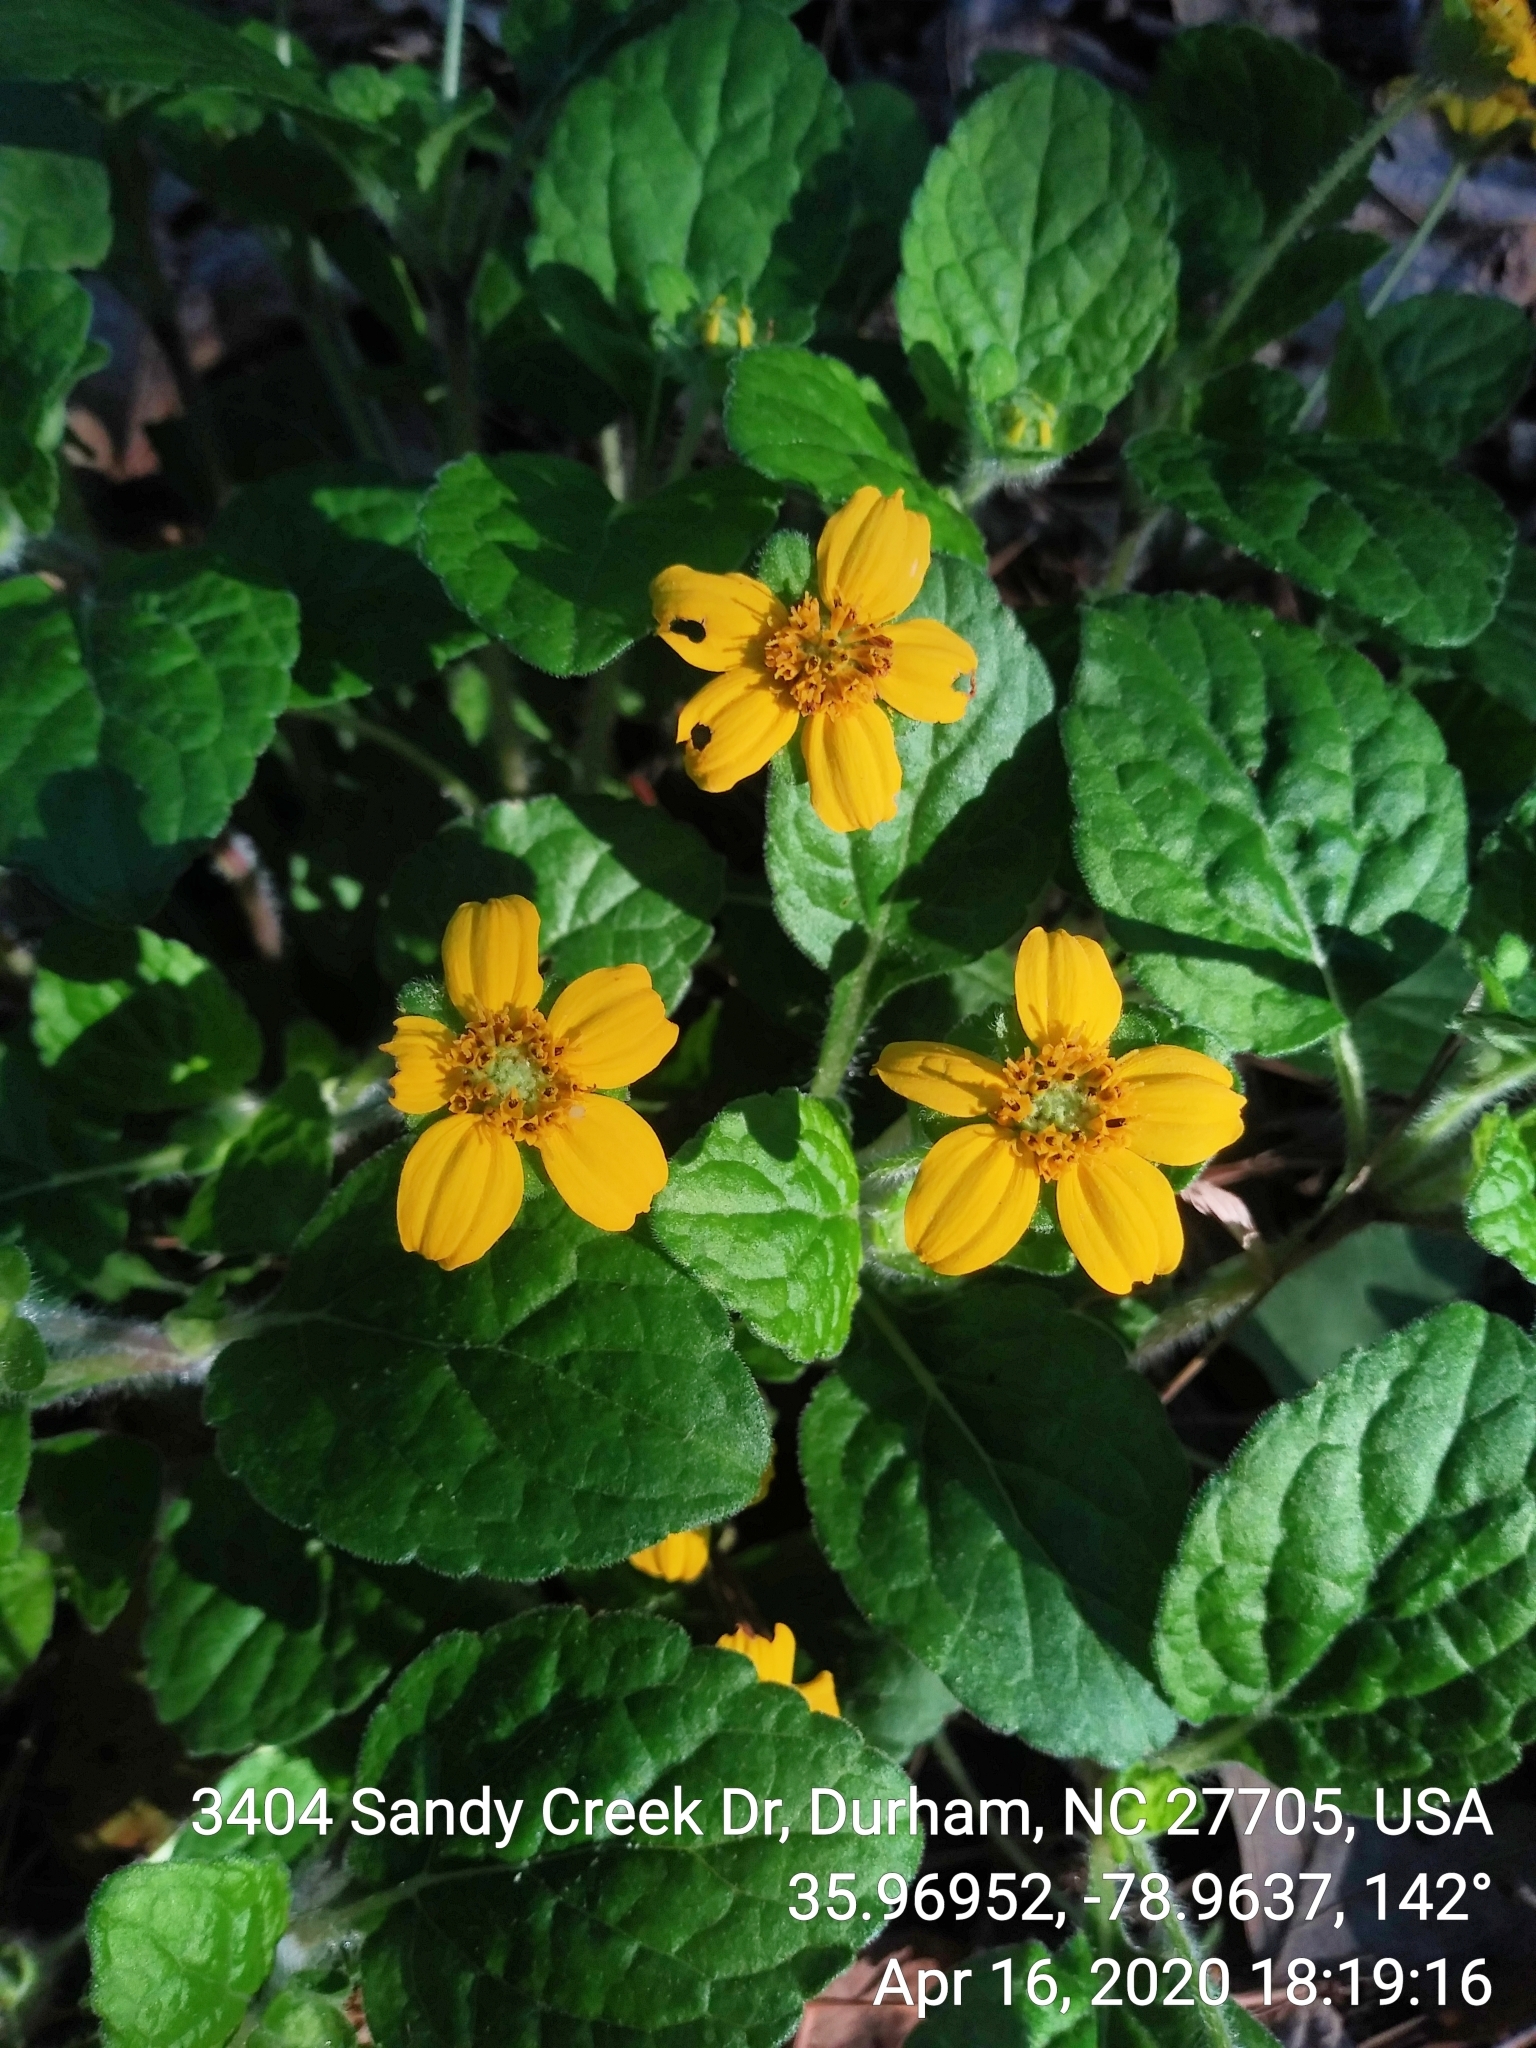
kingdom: Plantae
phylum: Tracheophyta
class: Magnoliopsida
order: Asterales
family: Asteraceae
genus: Chrysogonum
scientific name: Chrysogonum virginianum
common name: Golden-knee
